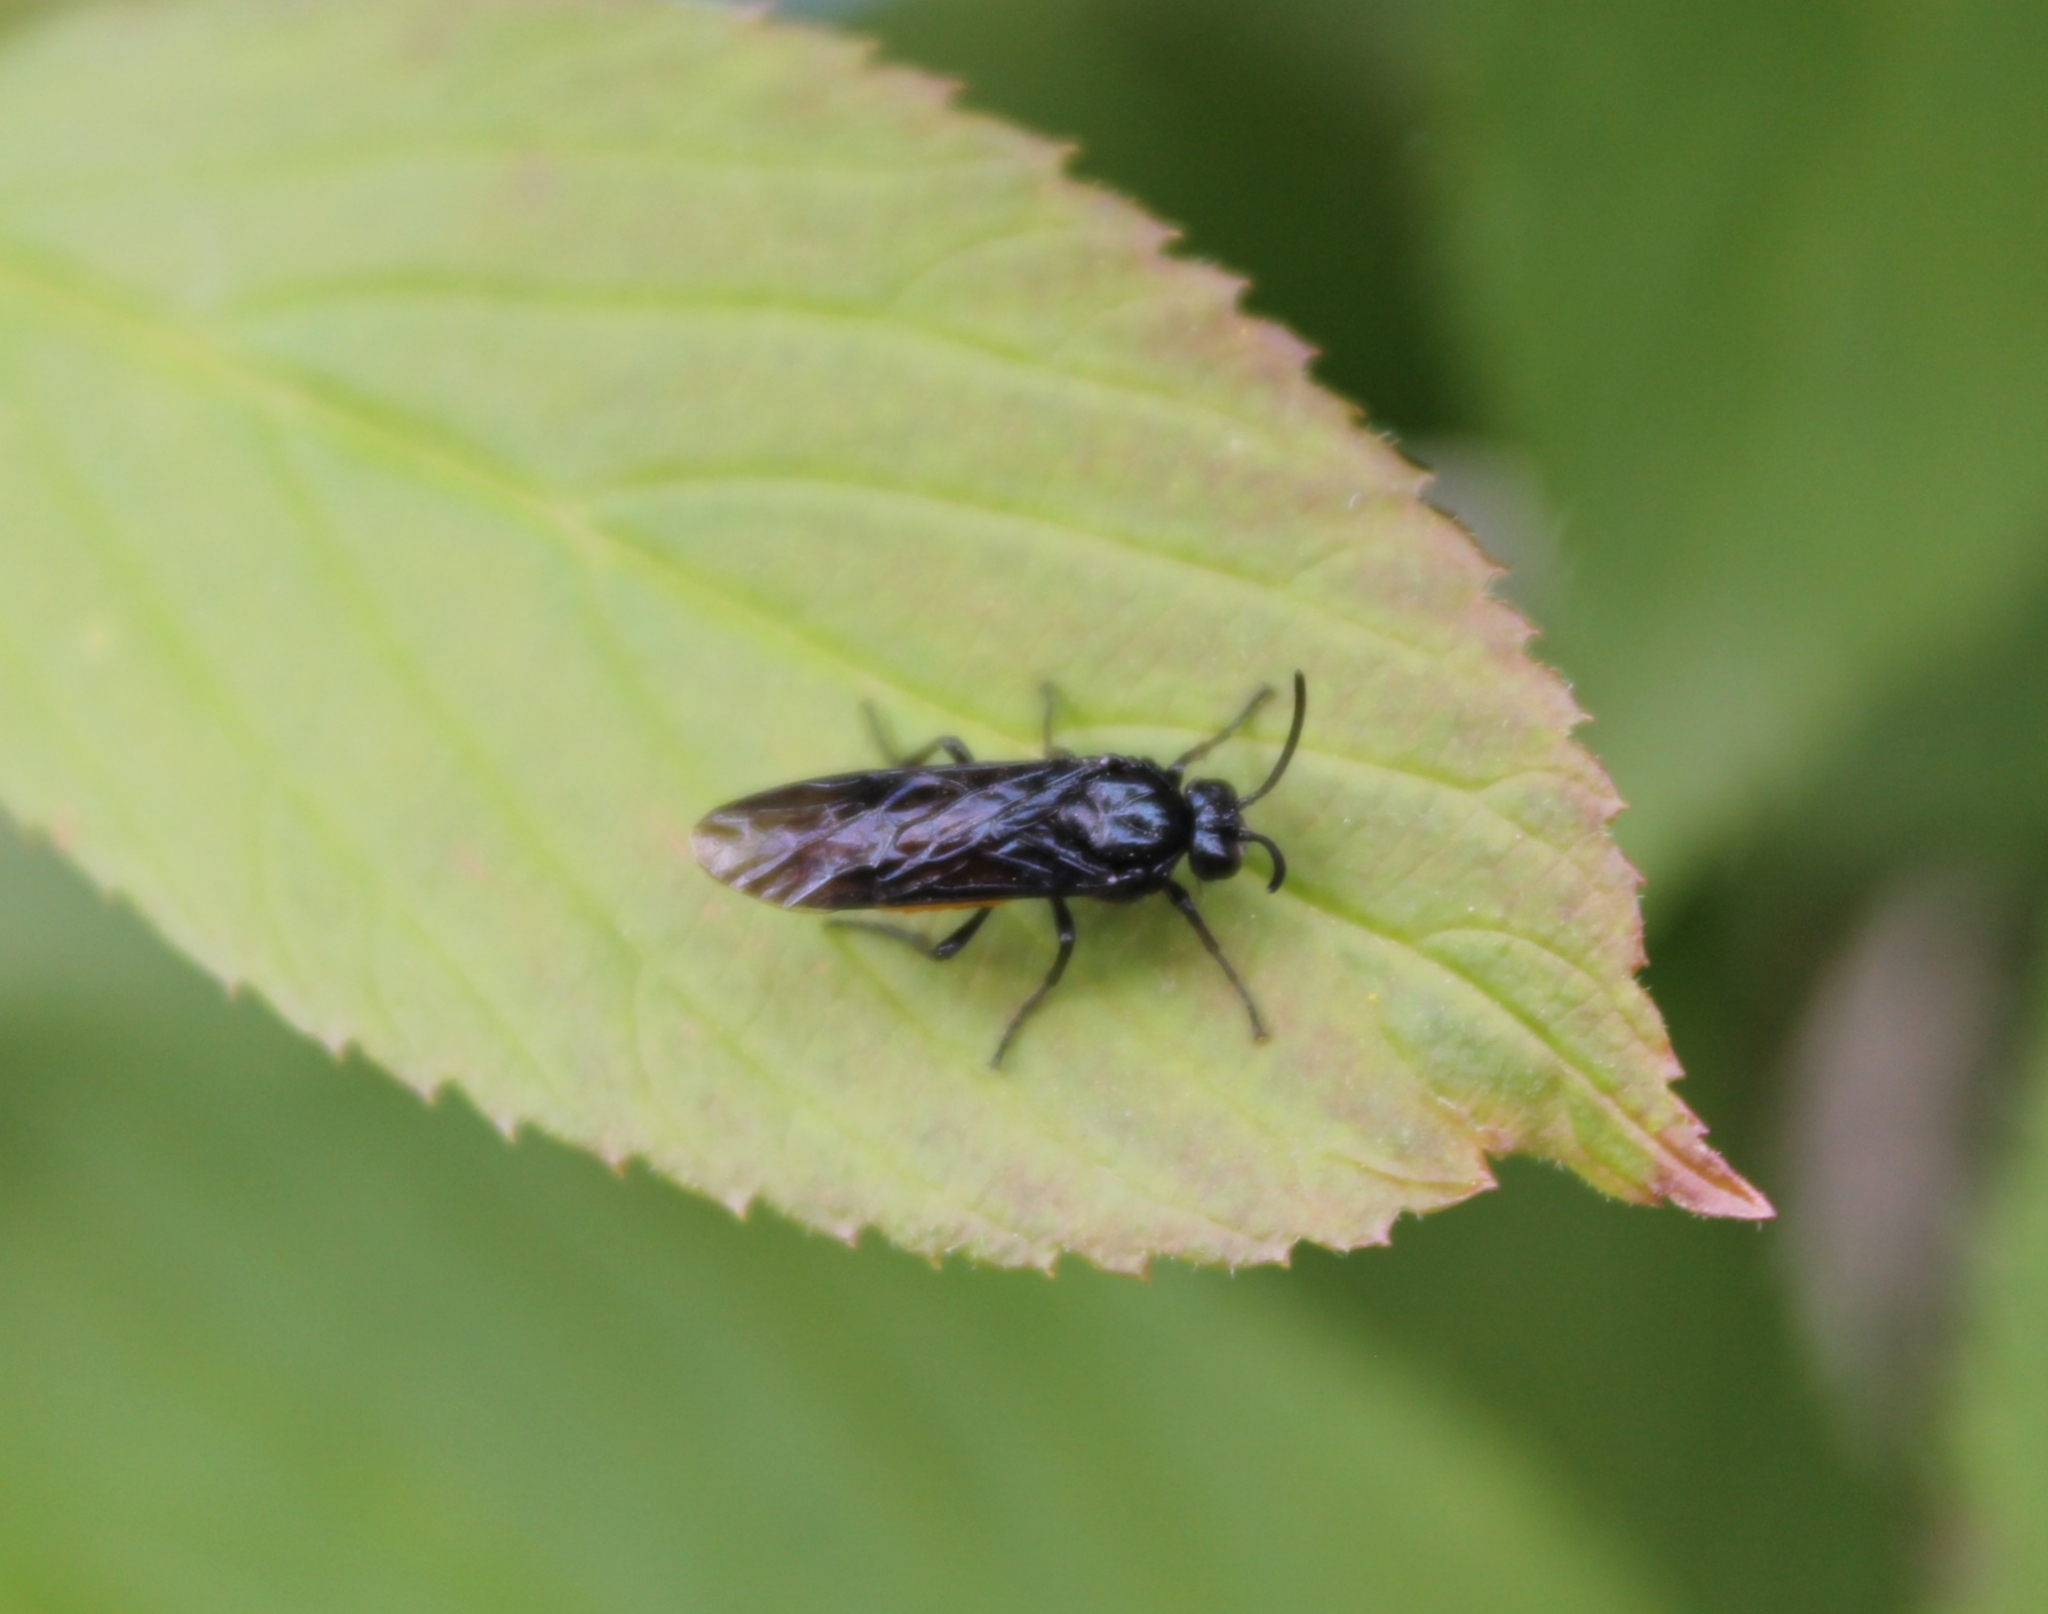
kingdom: Animalia
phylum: Arthropoda
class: Insecta
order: Hymenoptera
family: Argidae
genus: Arge
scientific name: Arge pagana
